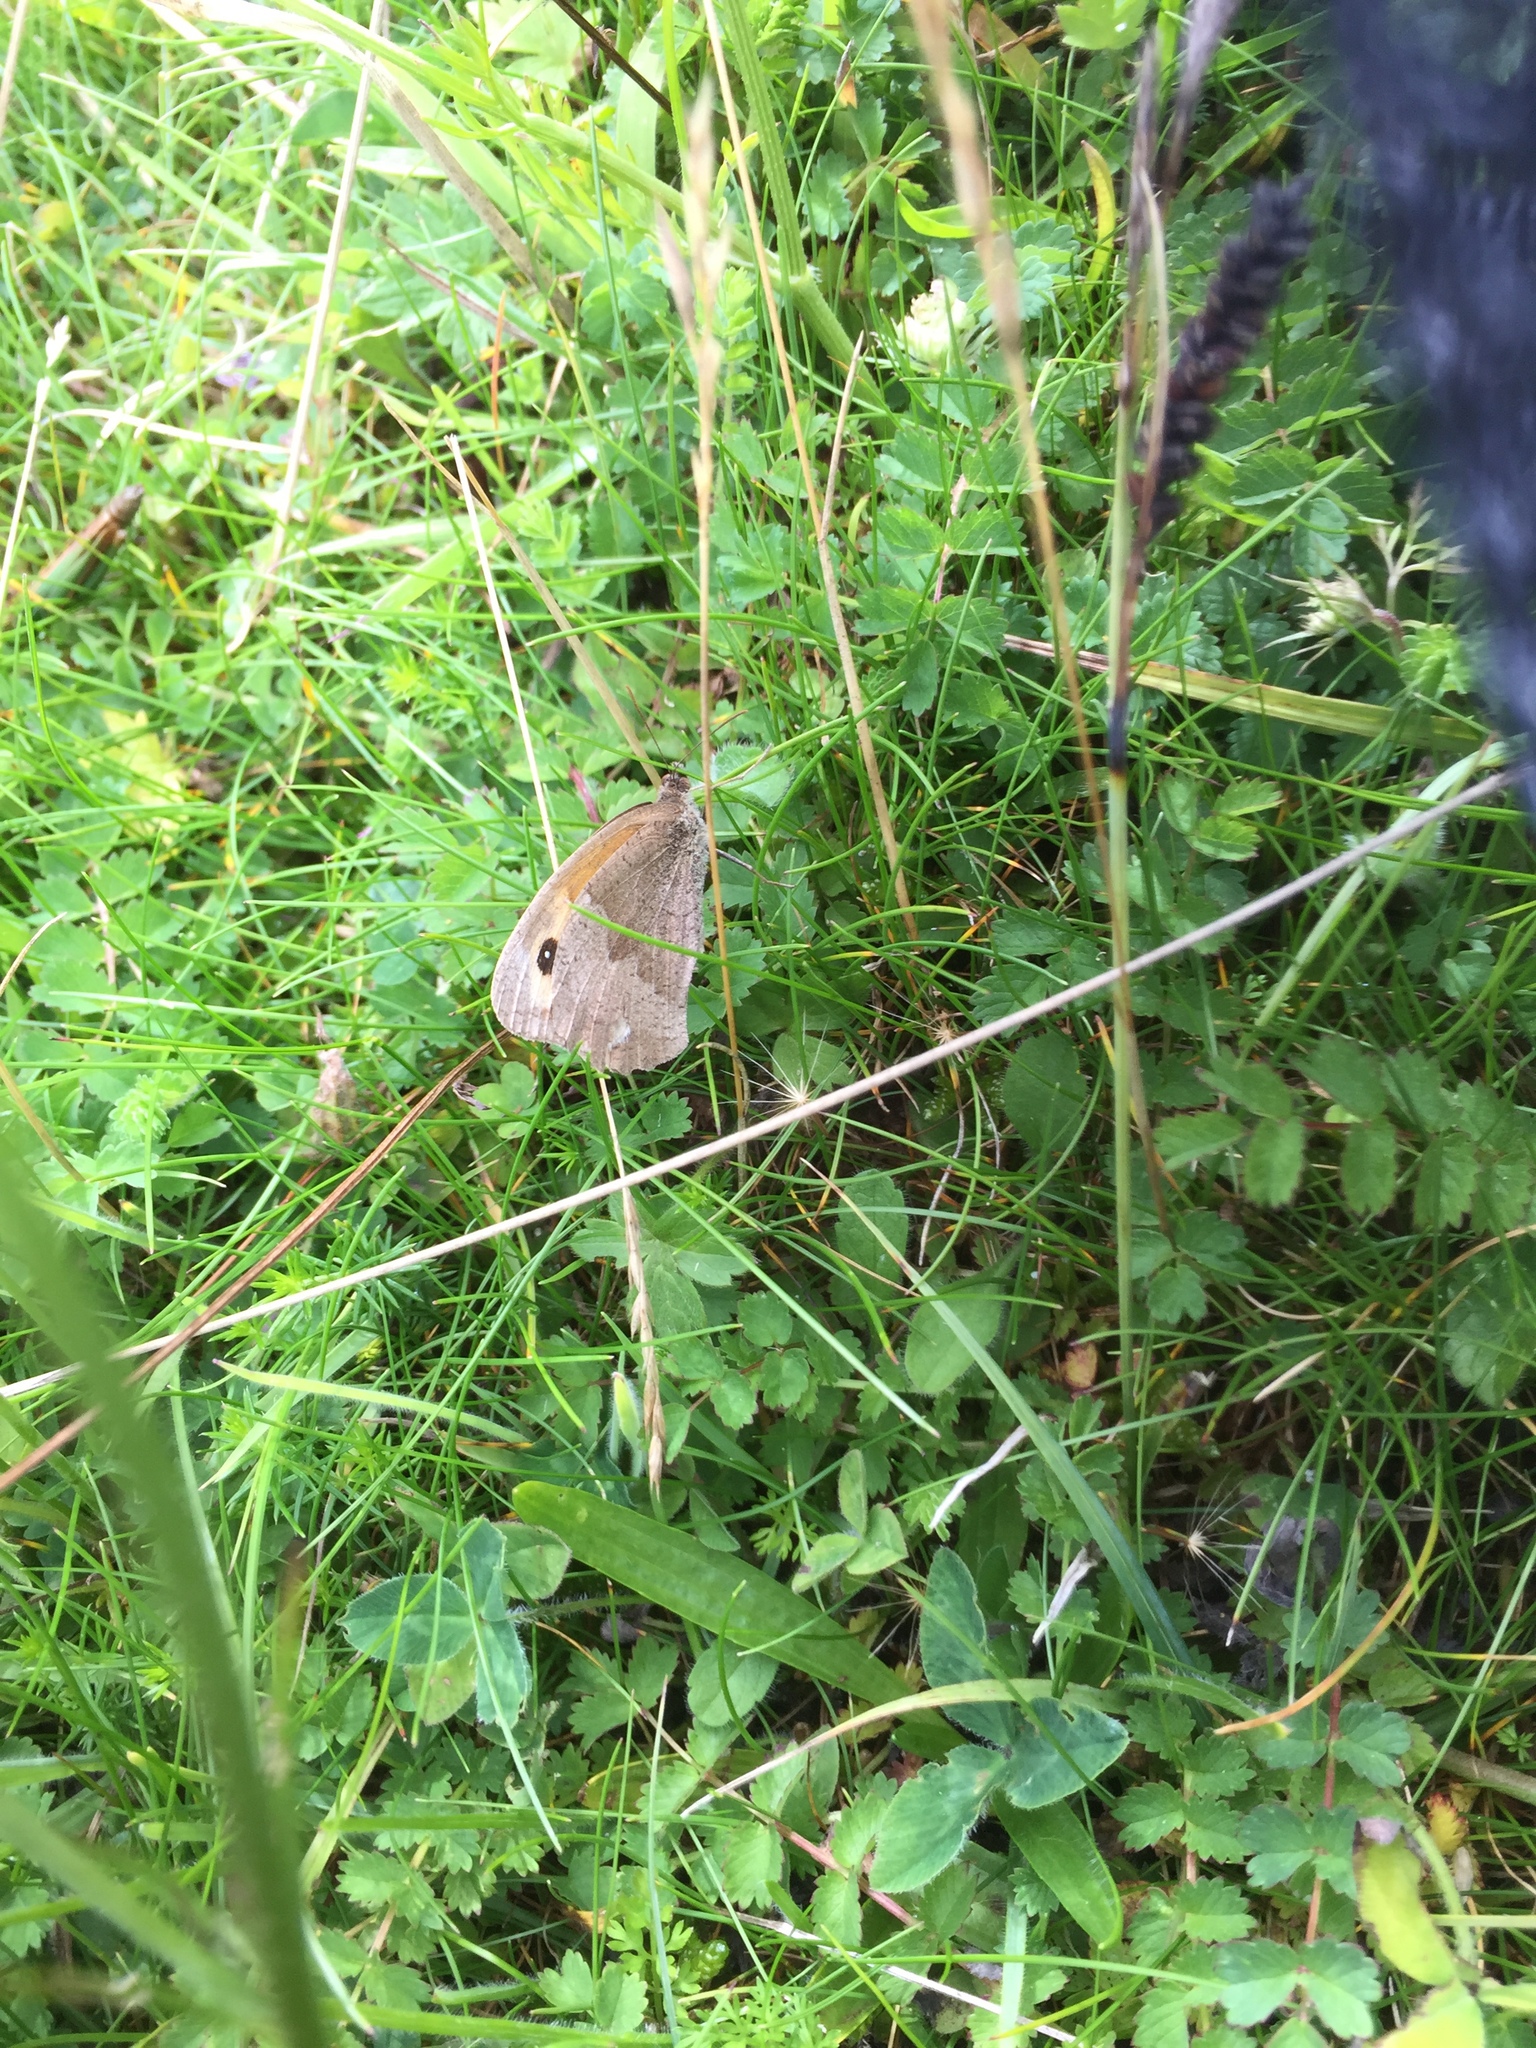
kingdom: Animalia
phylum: Arthropoda
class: Insecta
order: Lepidoptera
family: Nymphalidae
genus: Maniola
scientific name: Maniola jurtina
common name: Meadow brown
